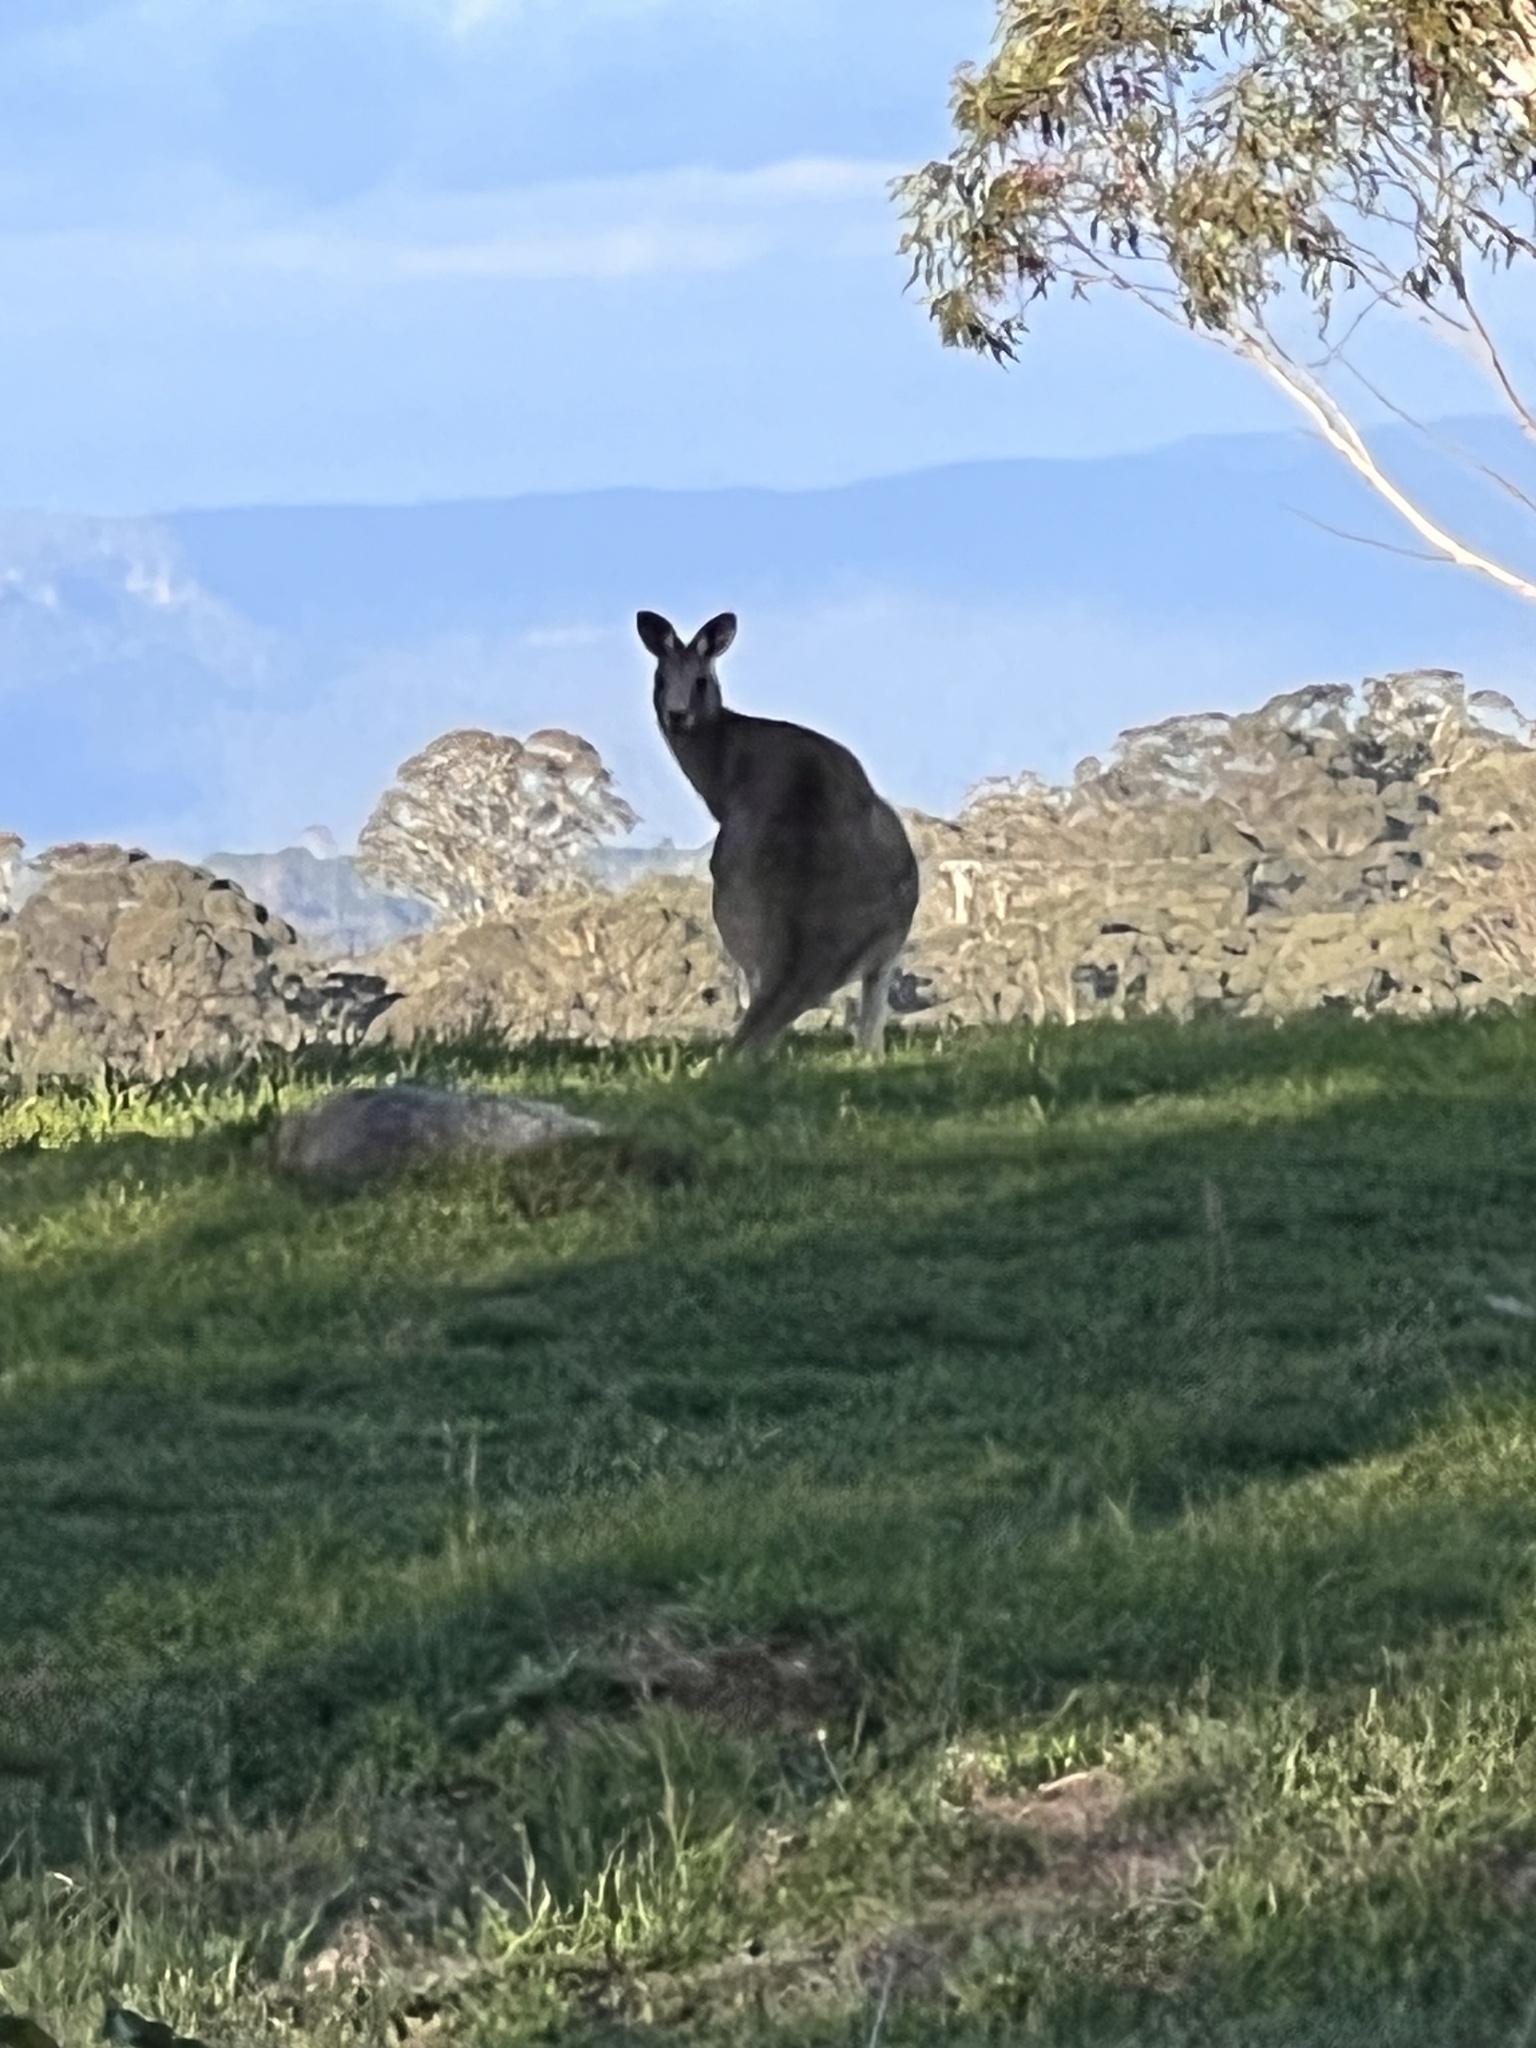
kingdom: Animalia
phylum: Chordata
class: Mammalia
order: Diprotodontia
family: Macropodidae
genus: Macropus
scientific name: Macropus giganteus
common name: Eastern grey kangaroo
